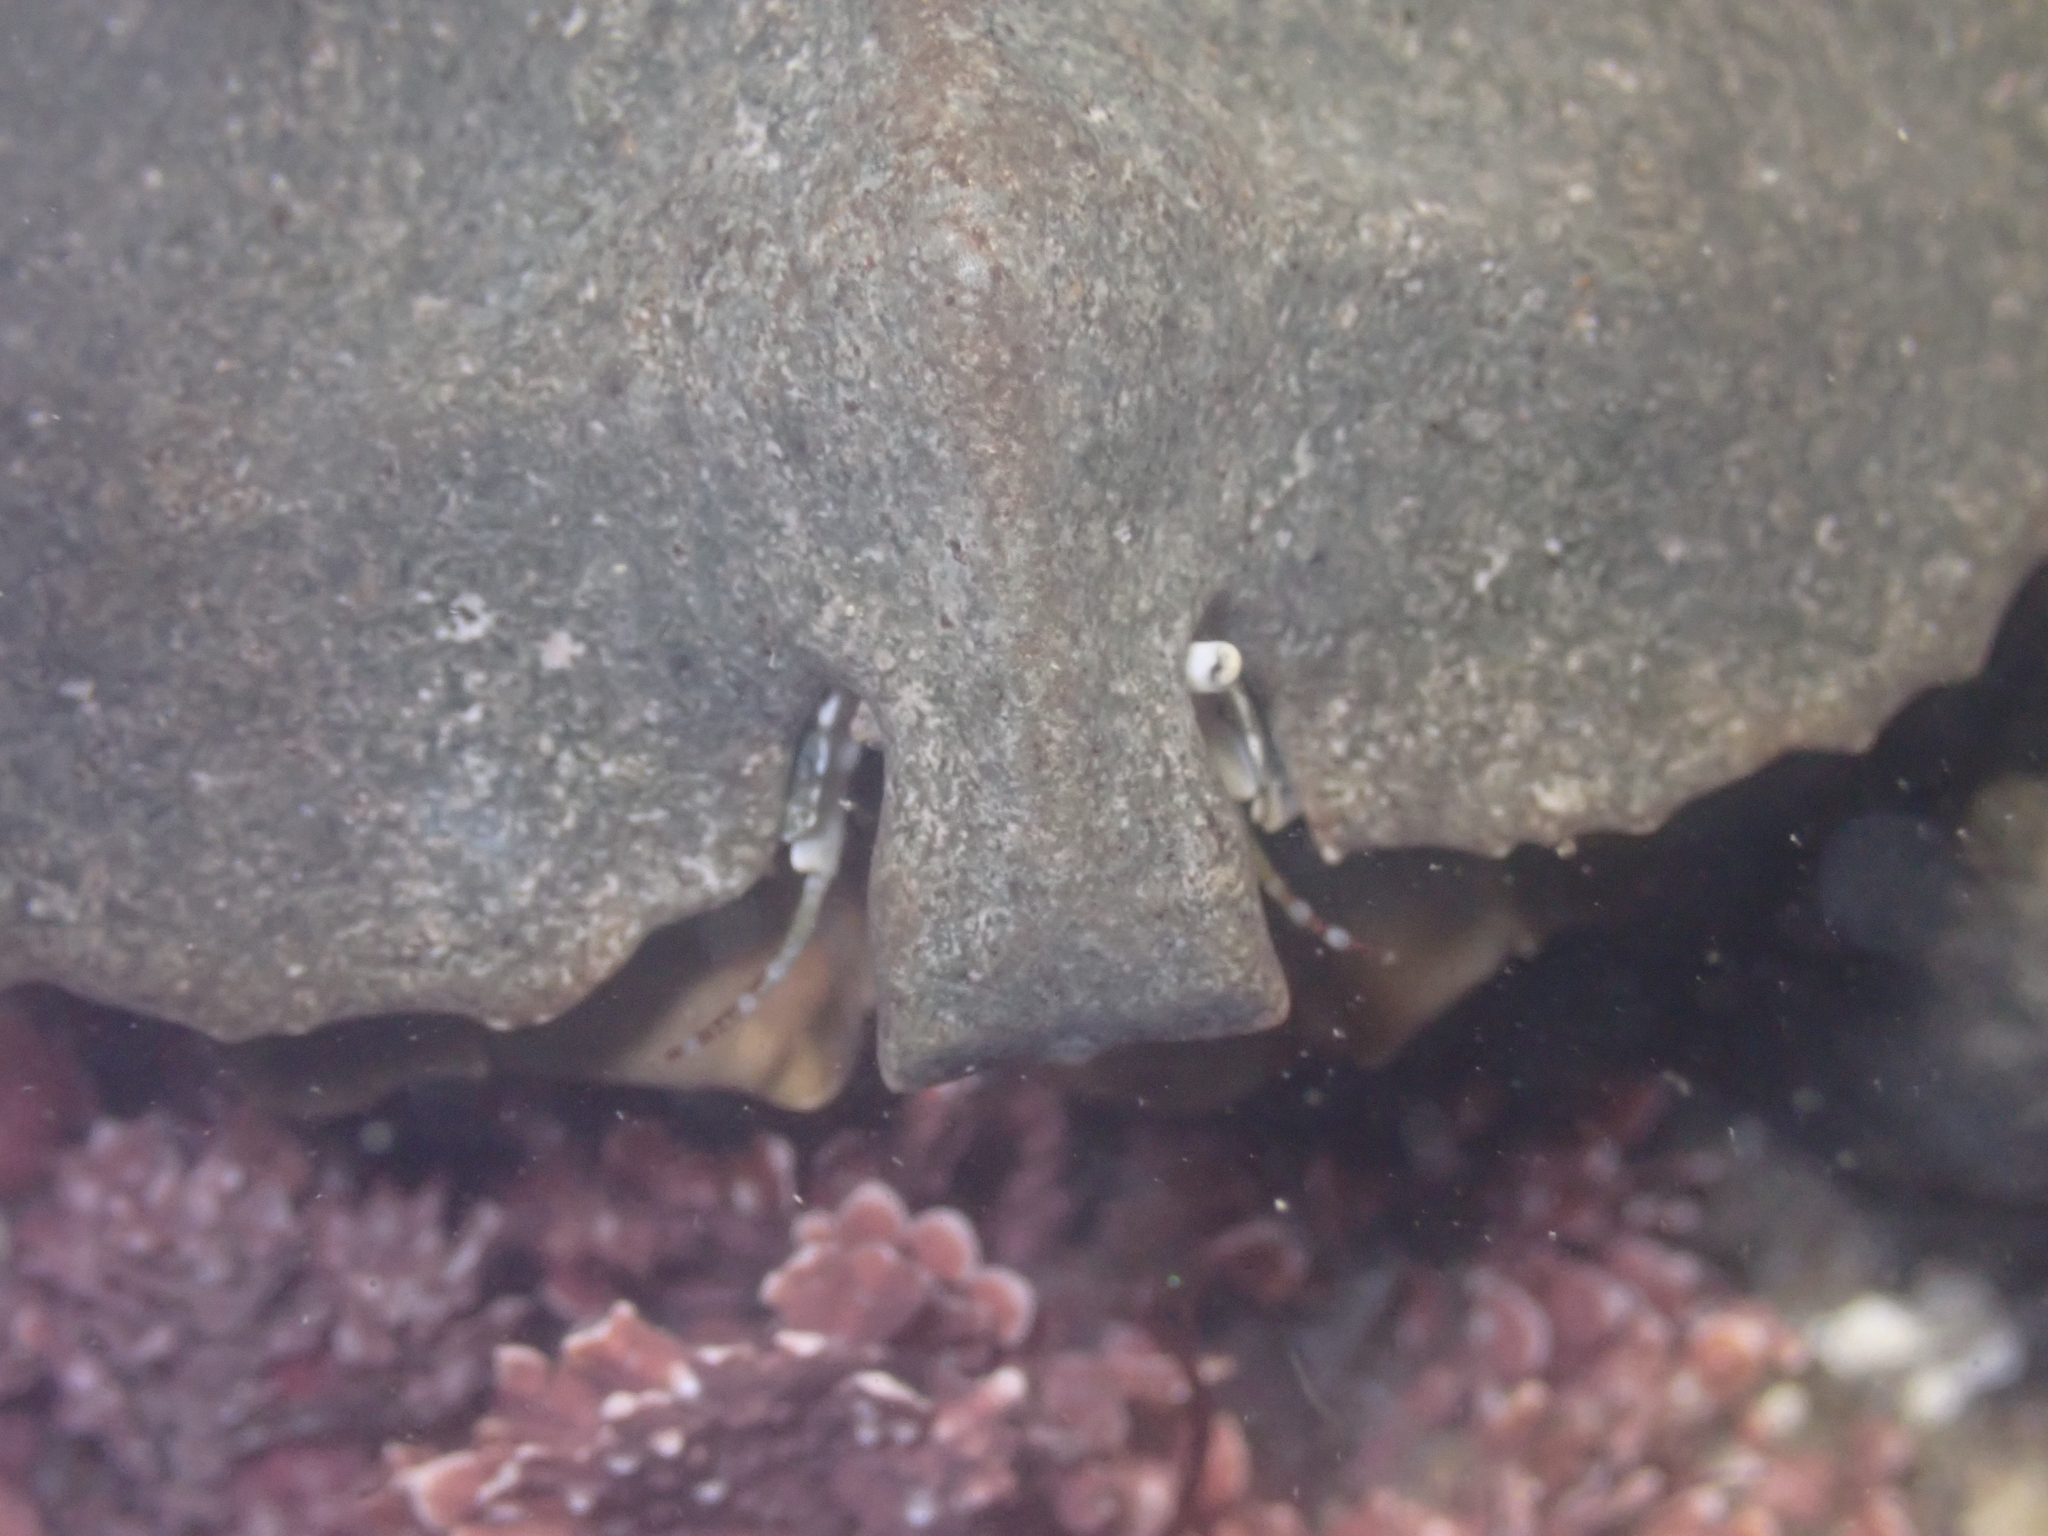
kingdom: Animalia
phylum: Arthropoda
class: Malacostraca
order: Decapoda
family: Lithodidae
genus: Cryptolithodes
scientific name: Cryptolithodes sitchensis
